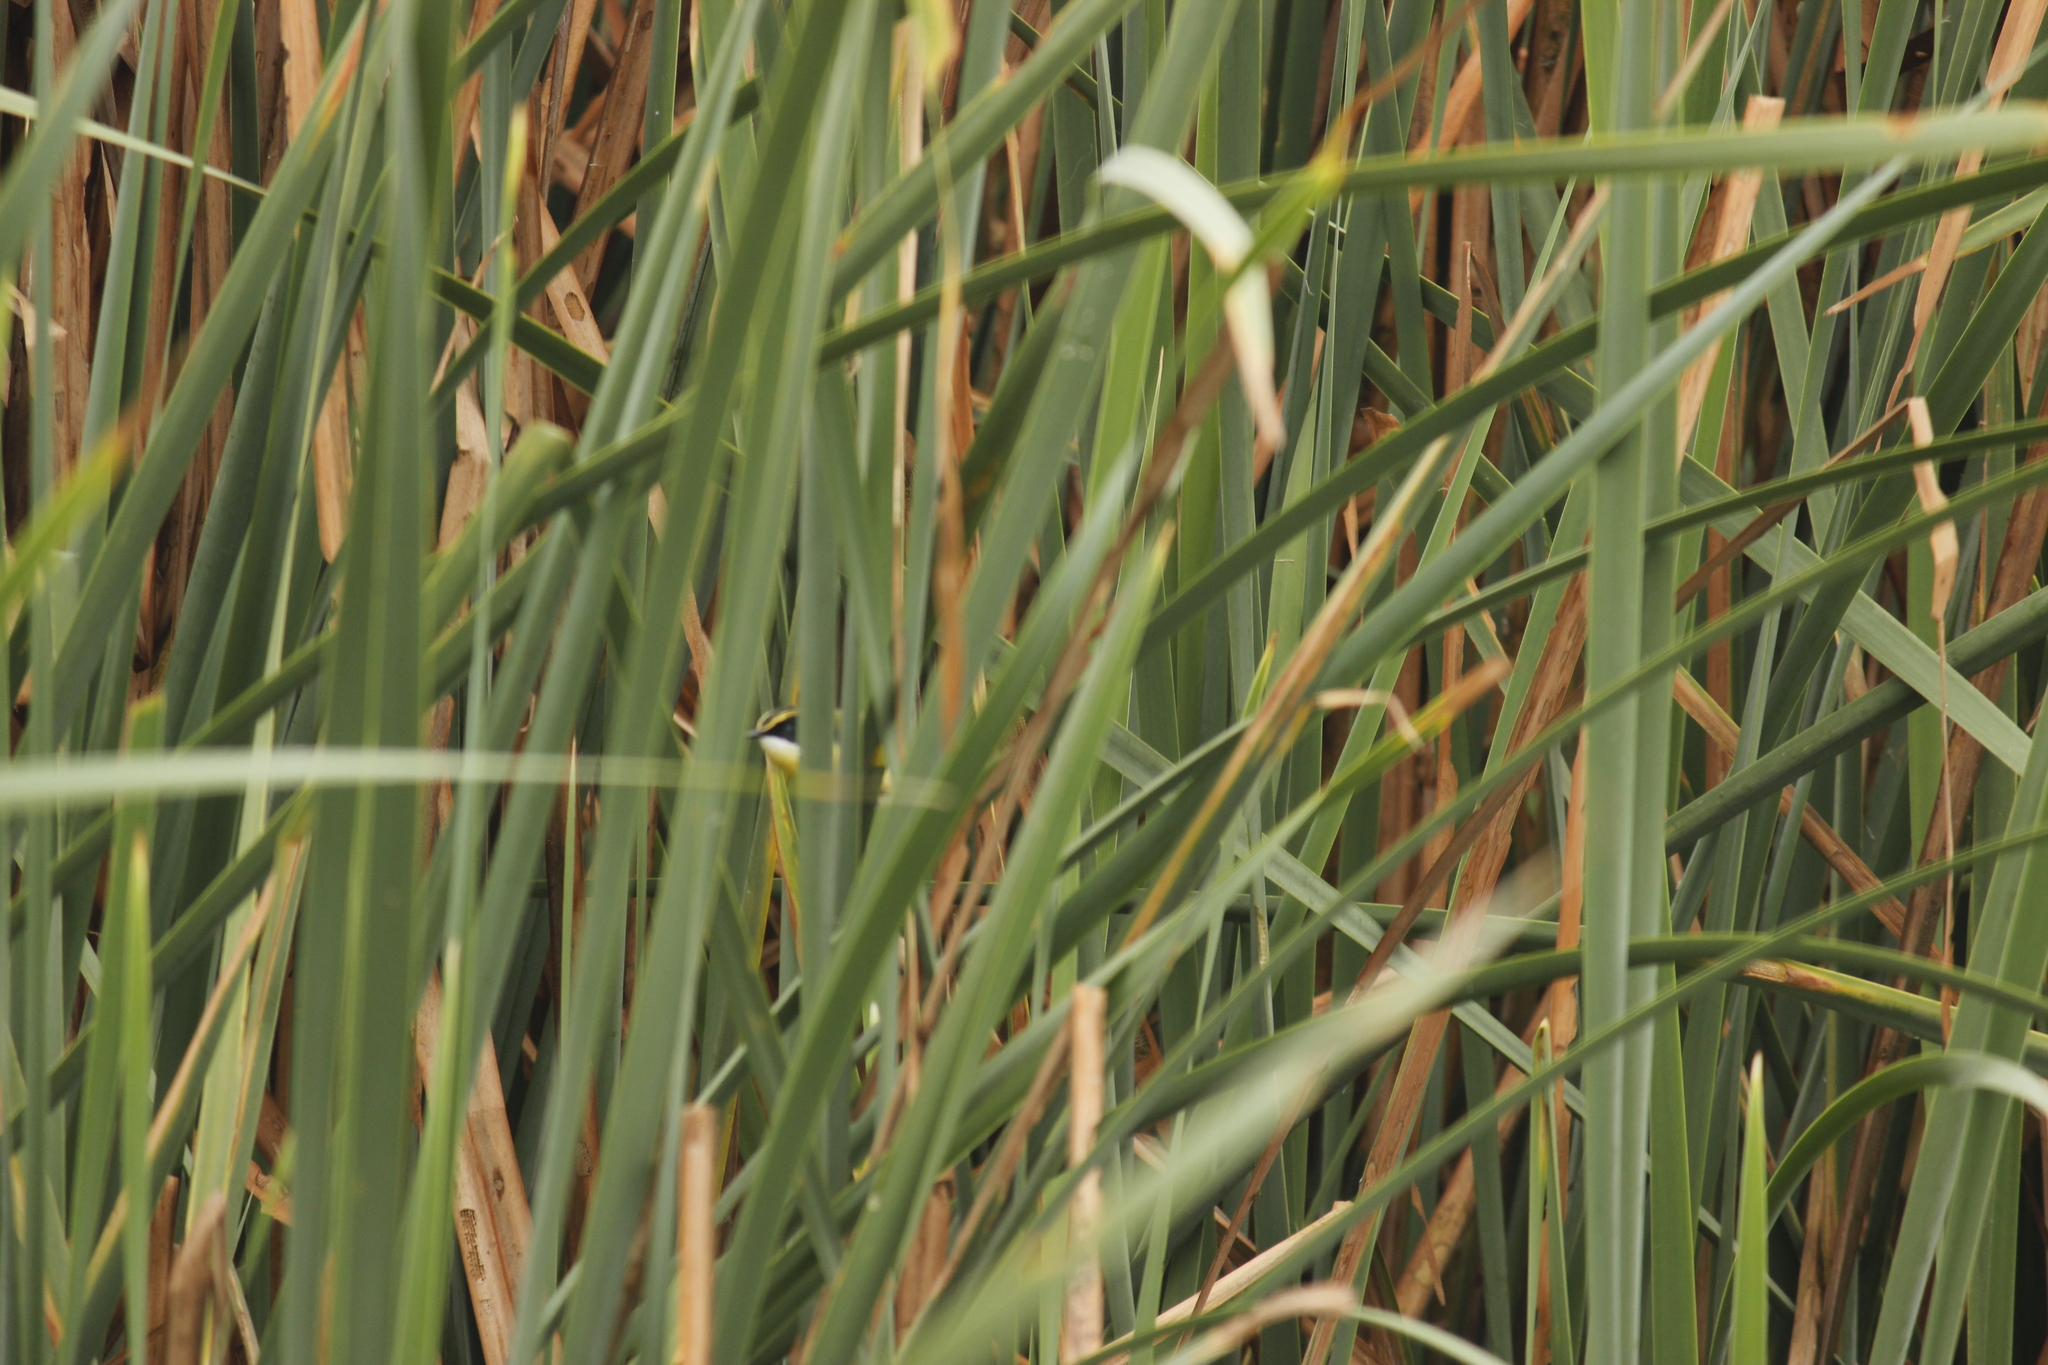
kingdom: Animalia
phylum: Chordata
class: Aves
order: Passeriformes
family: Tyrannidae
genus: Tachuris
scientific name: Tachuris rubrigastra
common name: Many-colored rush tyrant
